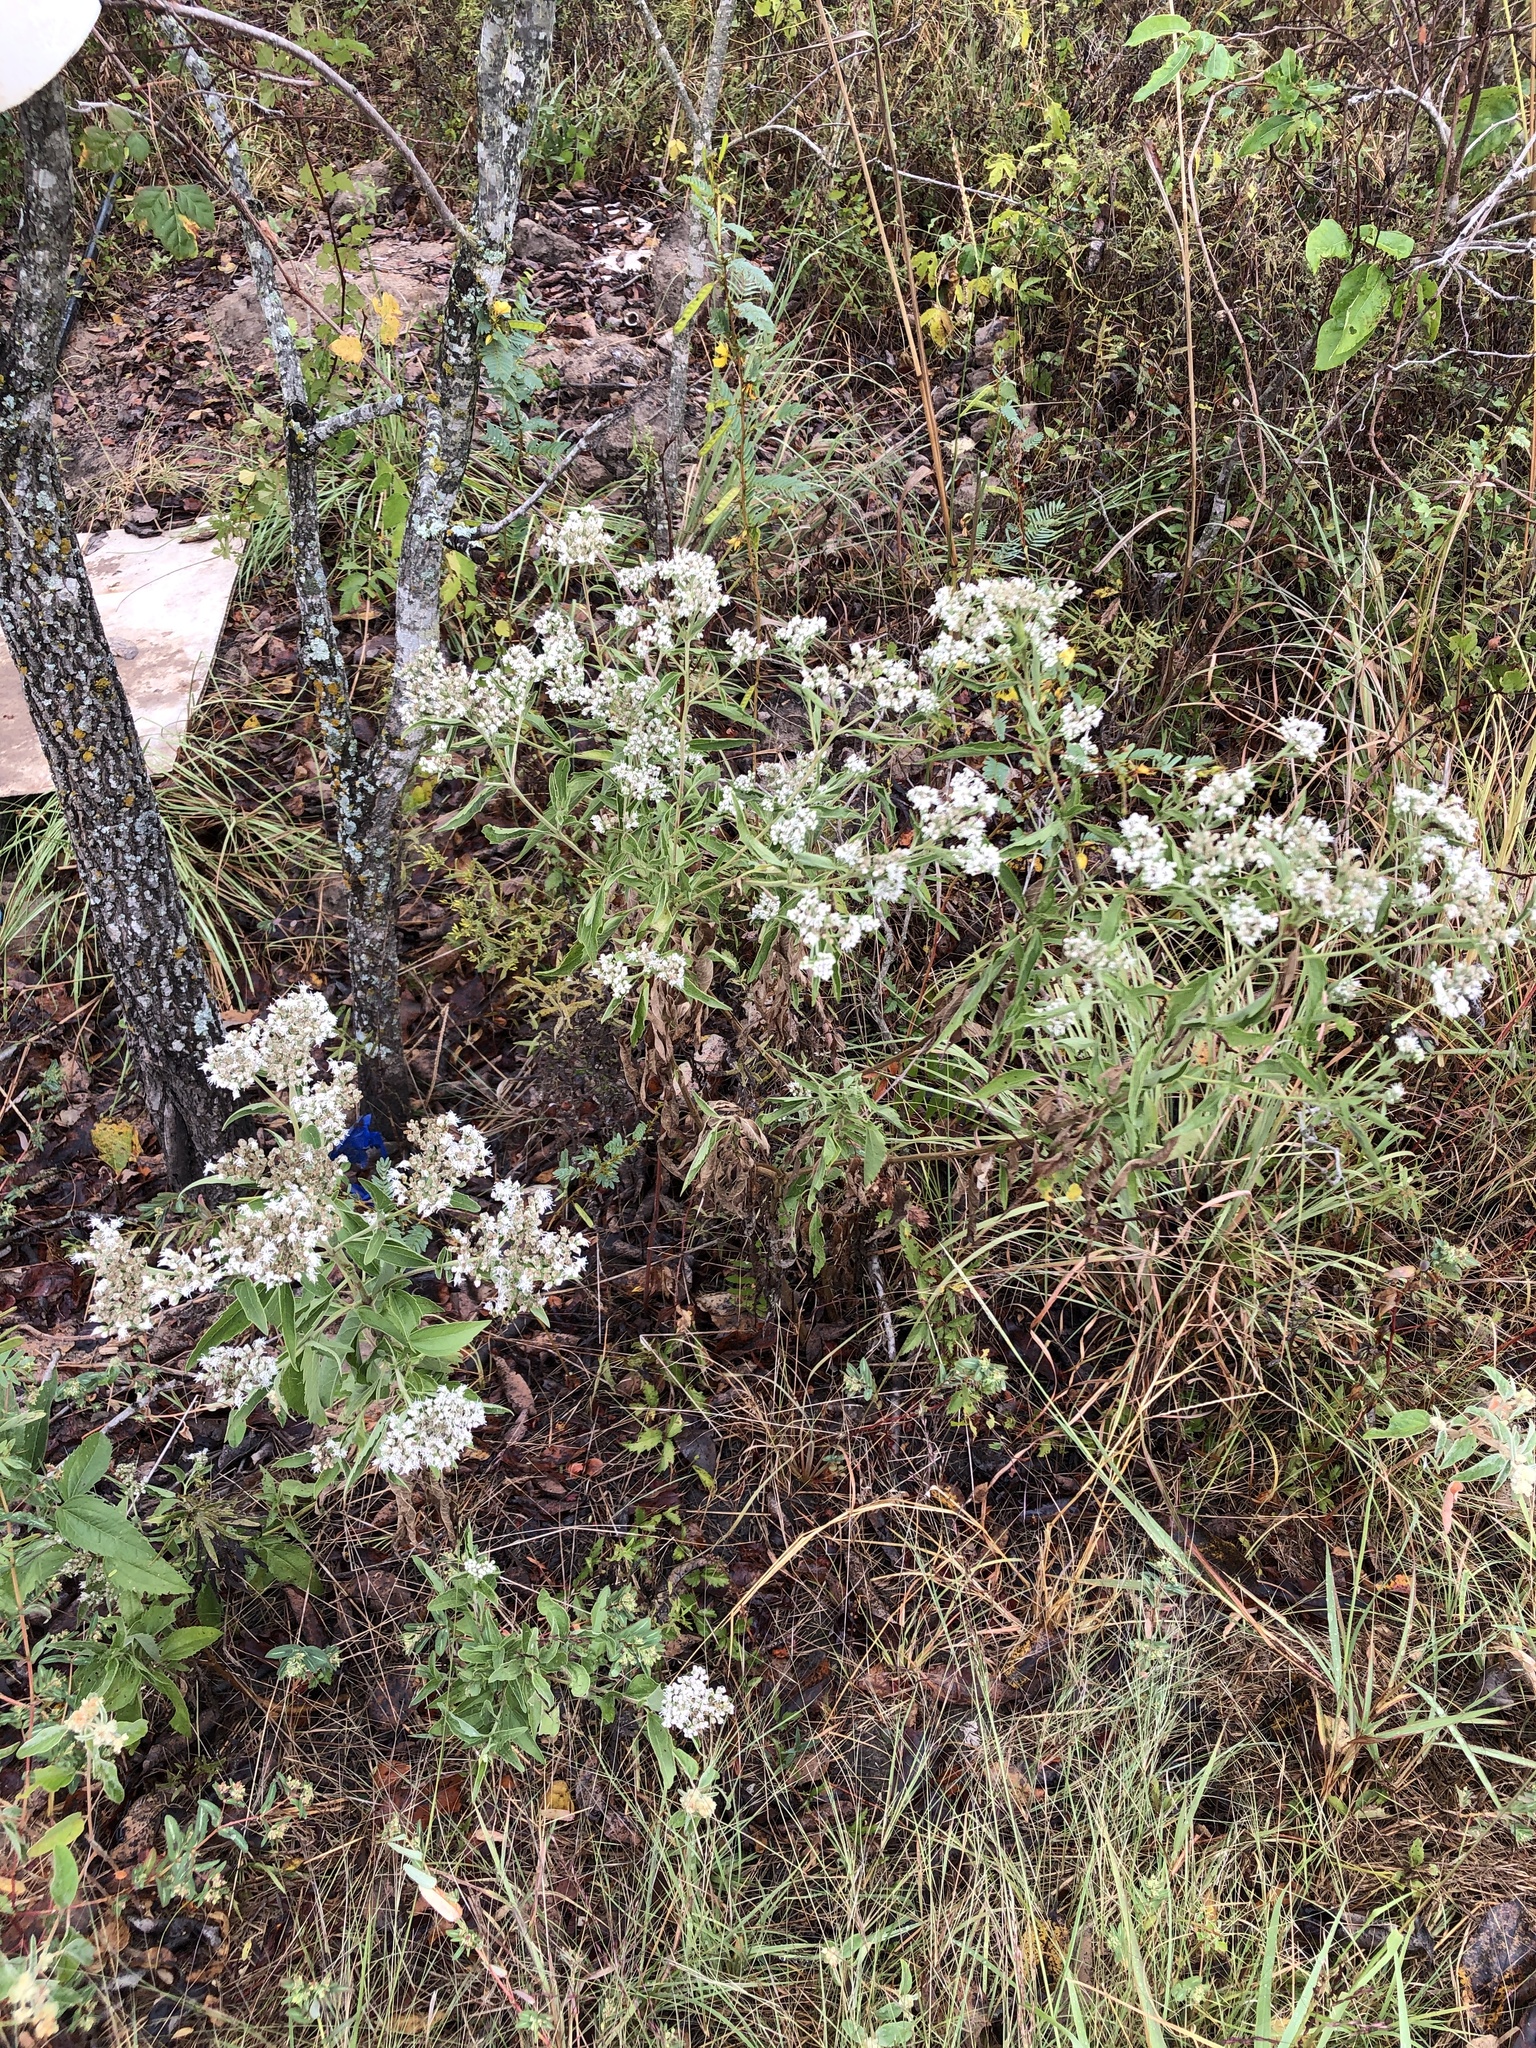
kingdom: Plantae
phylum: Tracheophyta
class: Magnoliopsida
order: Asterales
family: Asteraceae
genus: Eupatorium
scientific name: Eupatorium serotinum
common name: Late boneset
